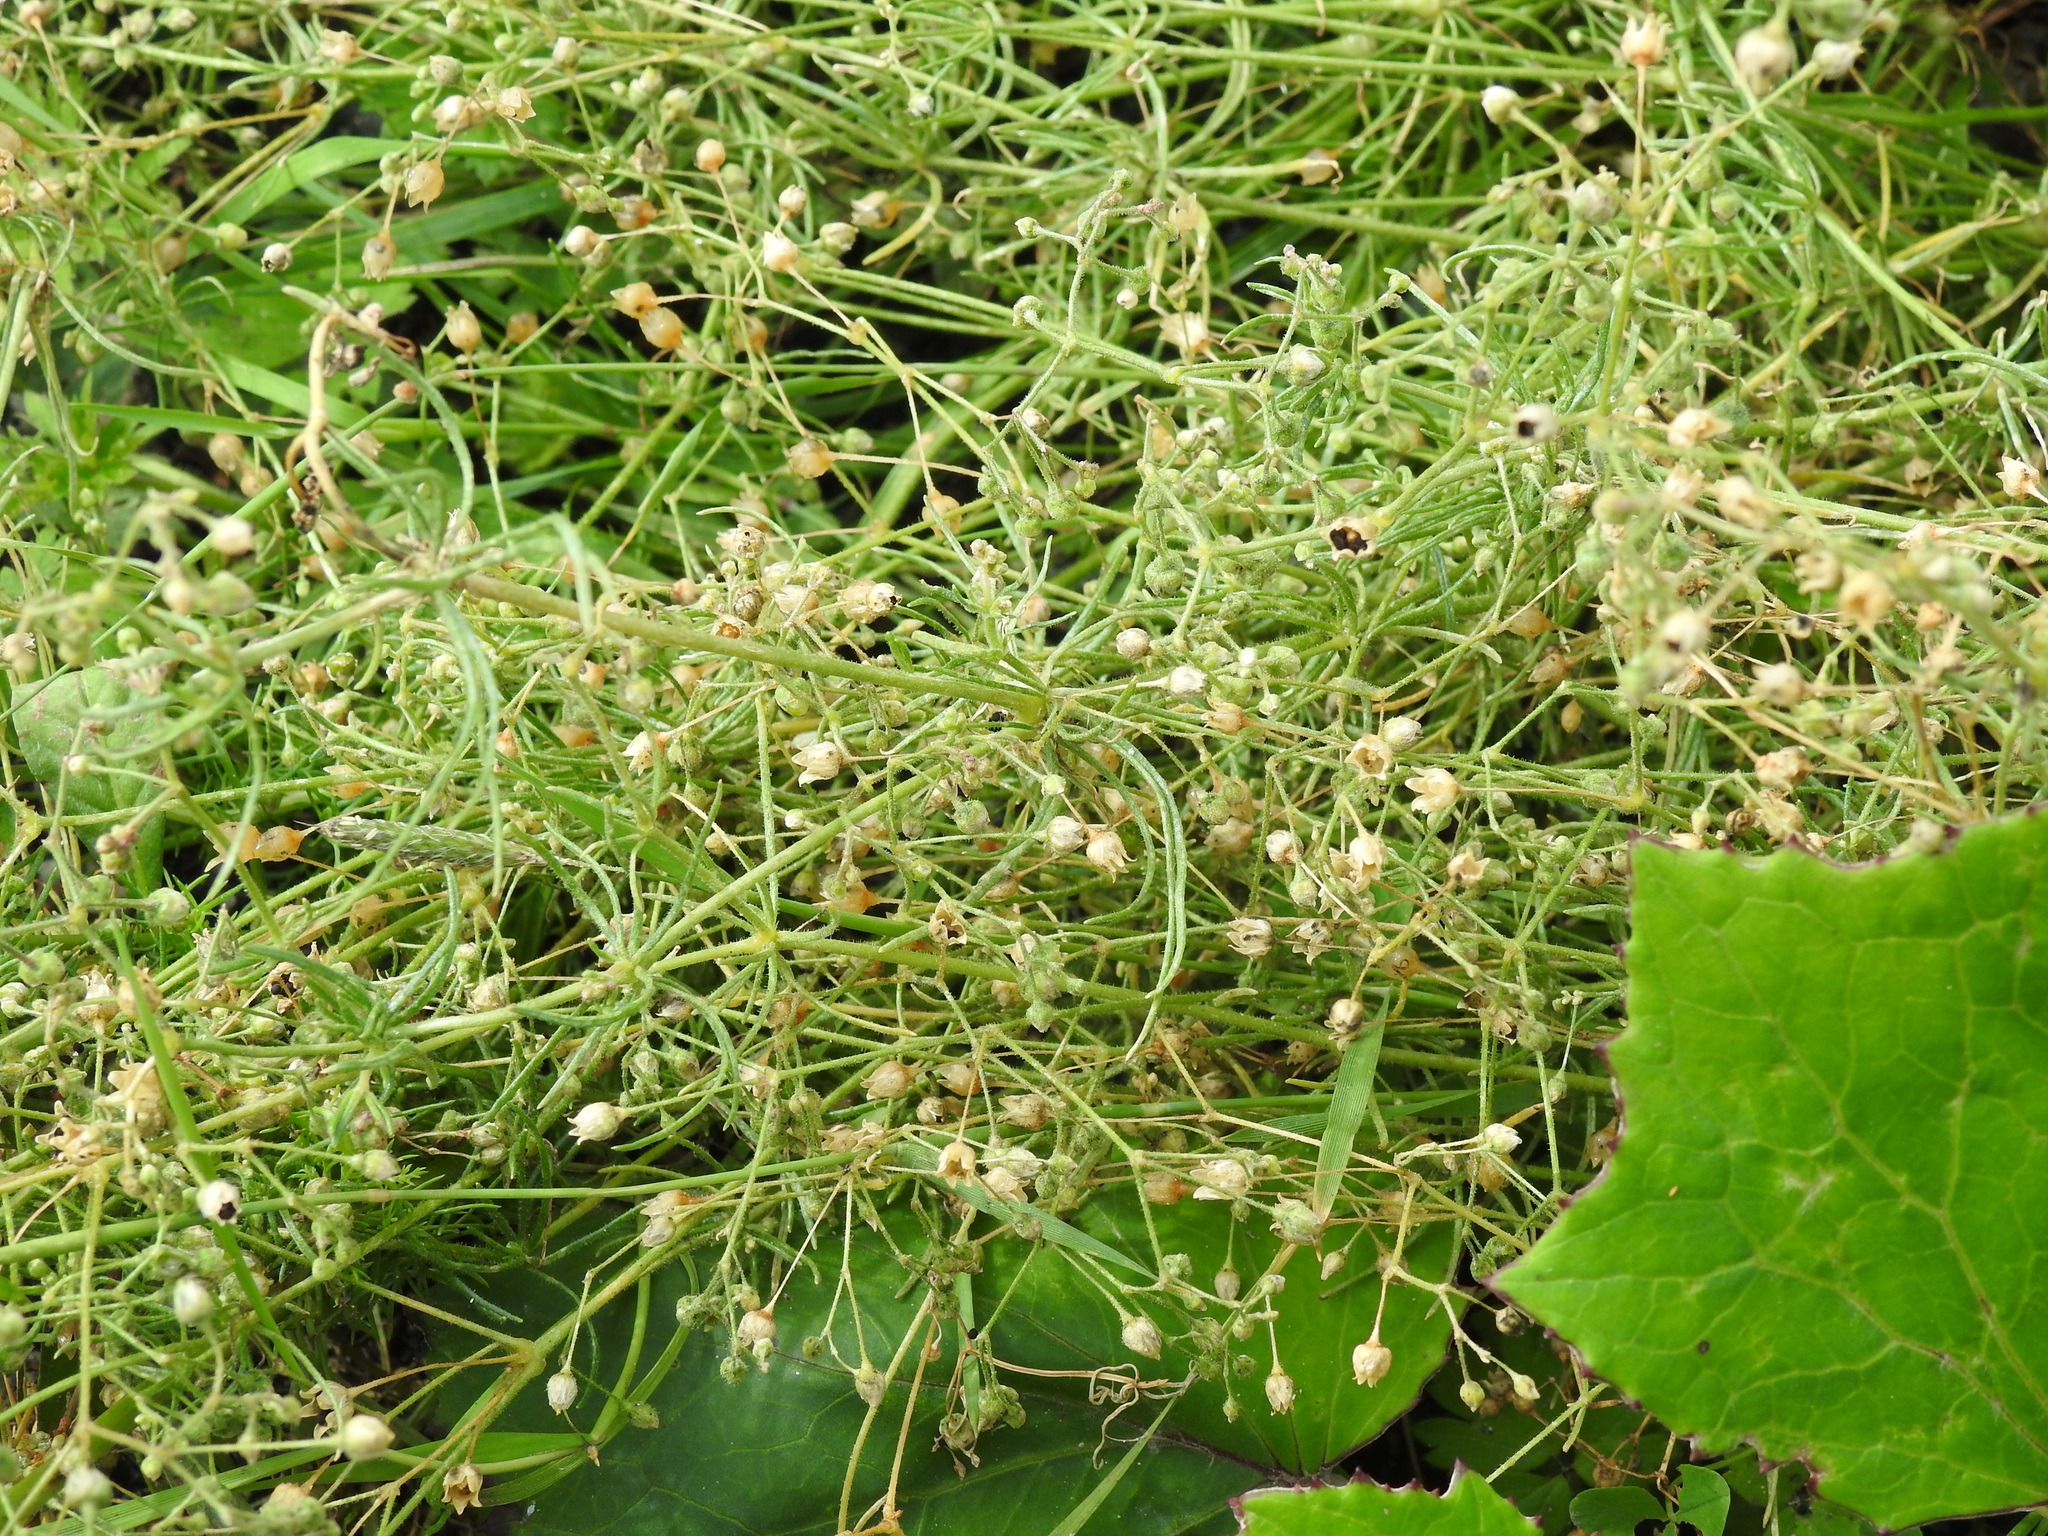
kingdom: Plantae
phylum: Tracheophyta
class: Magnoliopsida
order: Caryophyllales
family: Caryophyllaceae
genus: Spergula
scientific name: Spergula arvensis
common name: Corn spurrey
